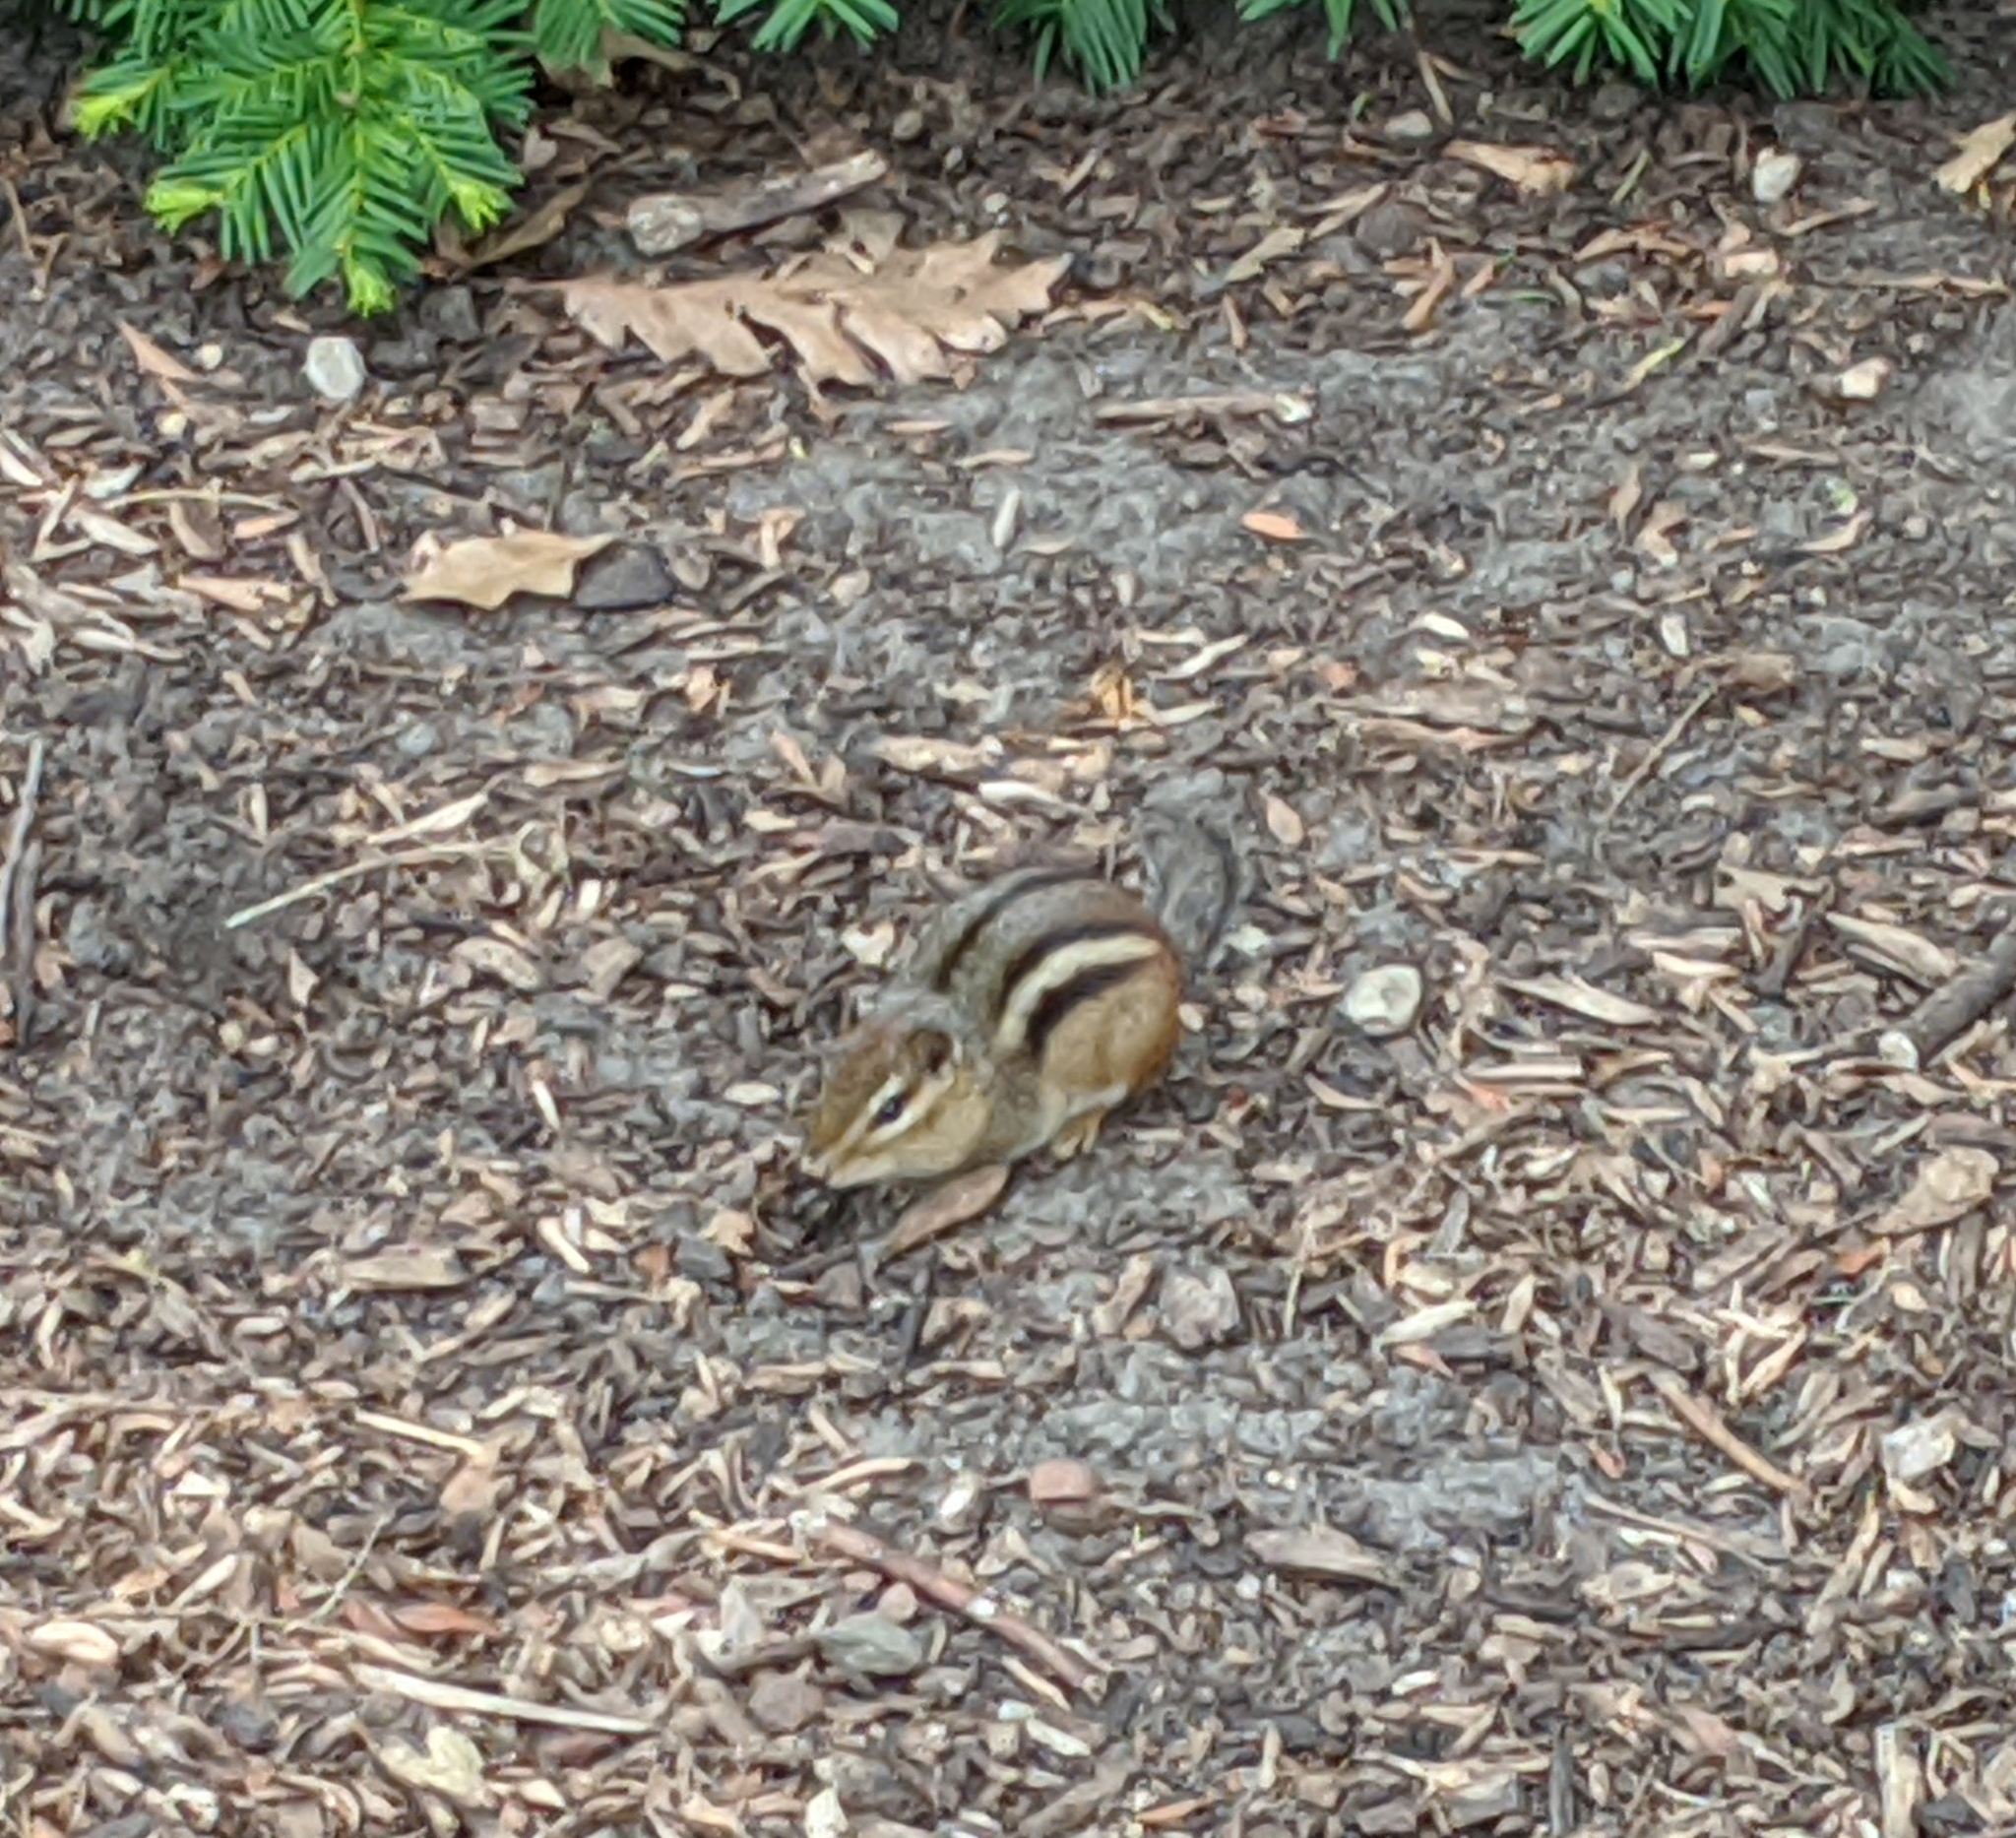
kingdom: Animalia
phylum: Chordata
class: Mammalia
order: Rodentia
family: Sciuridae
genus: Tamias
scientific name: Tamias striatus
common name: Eastern chipmunk
